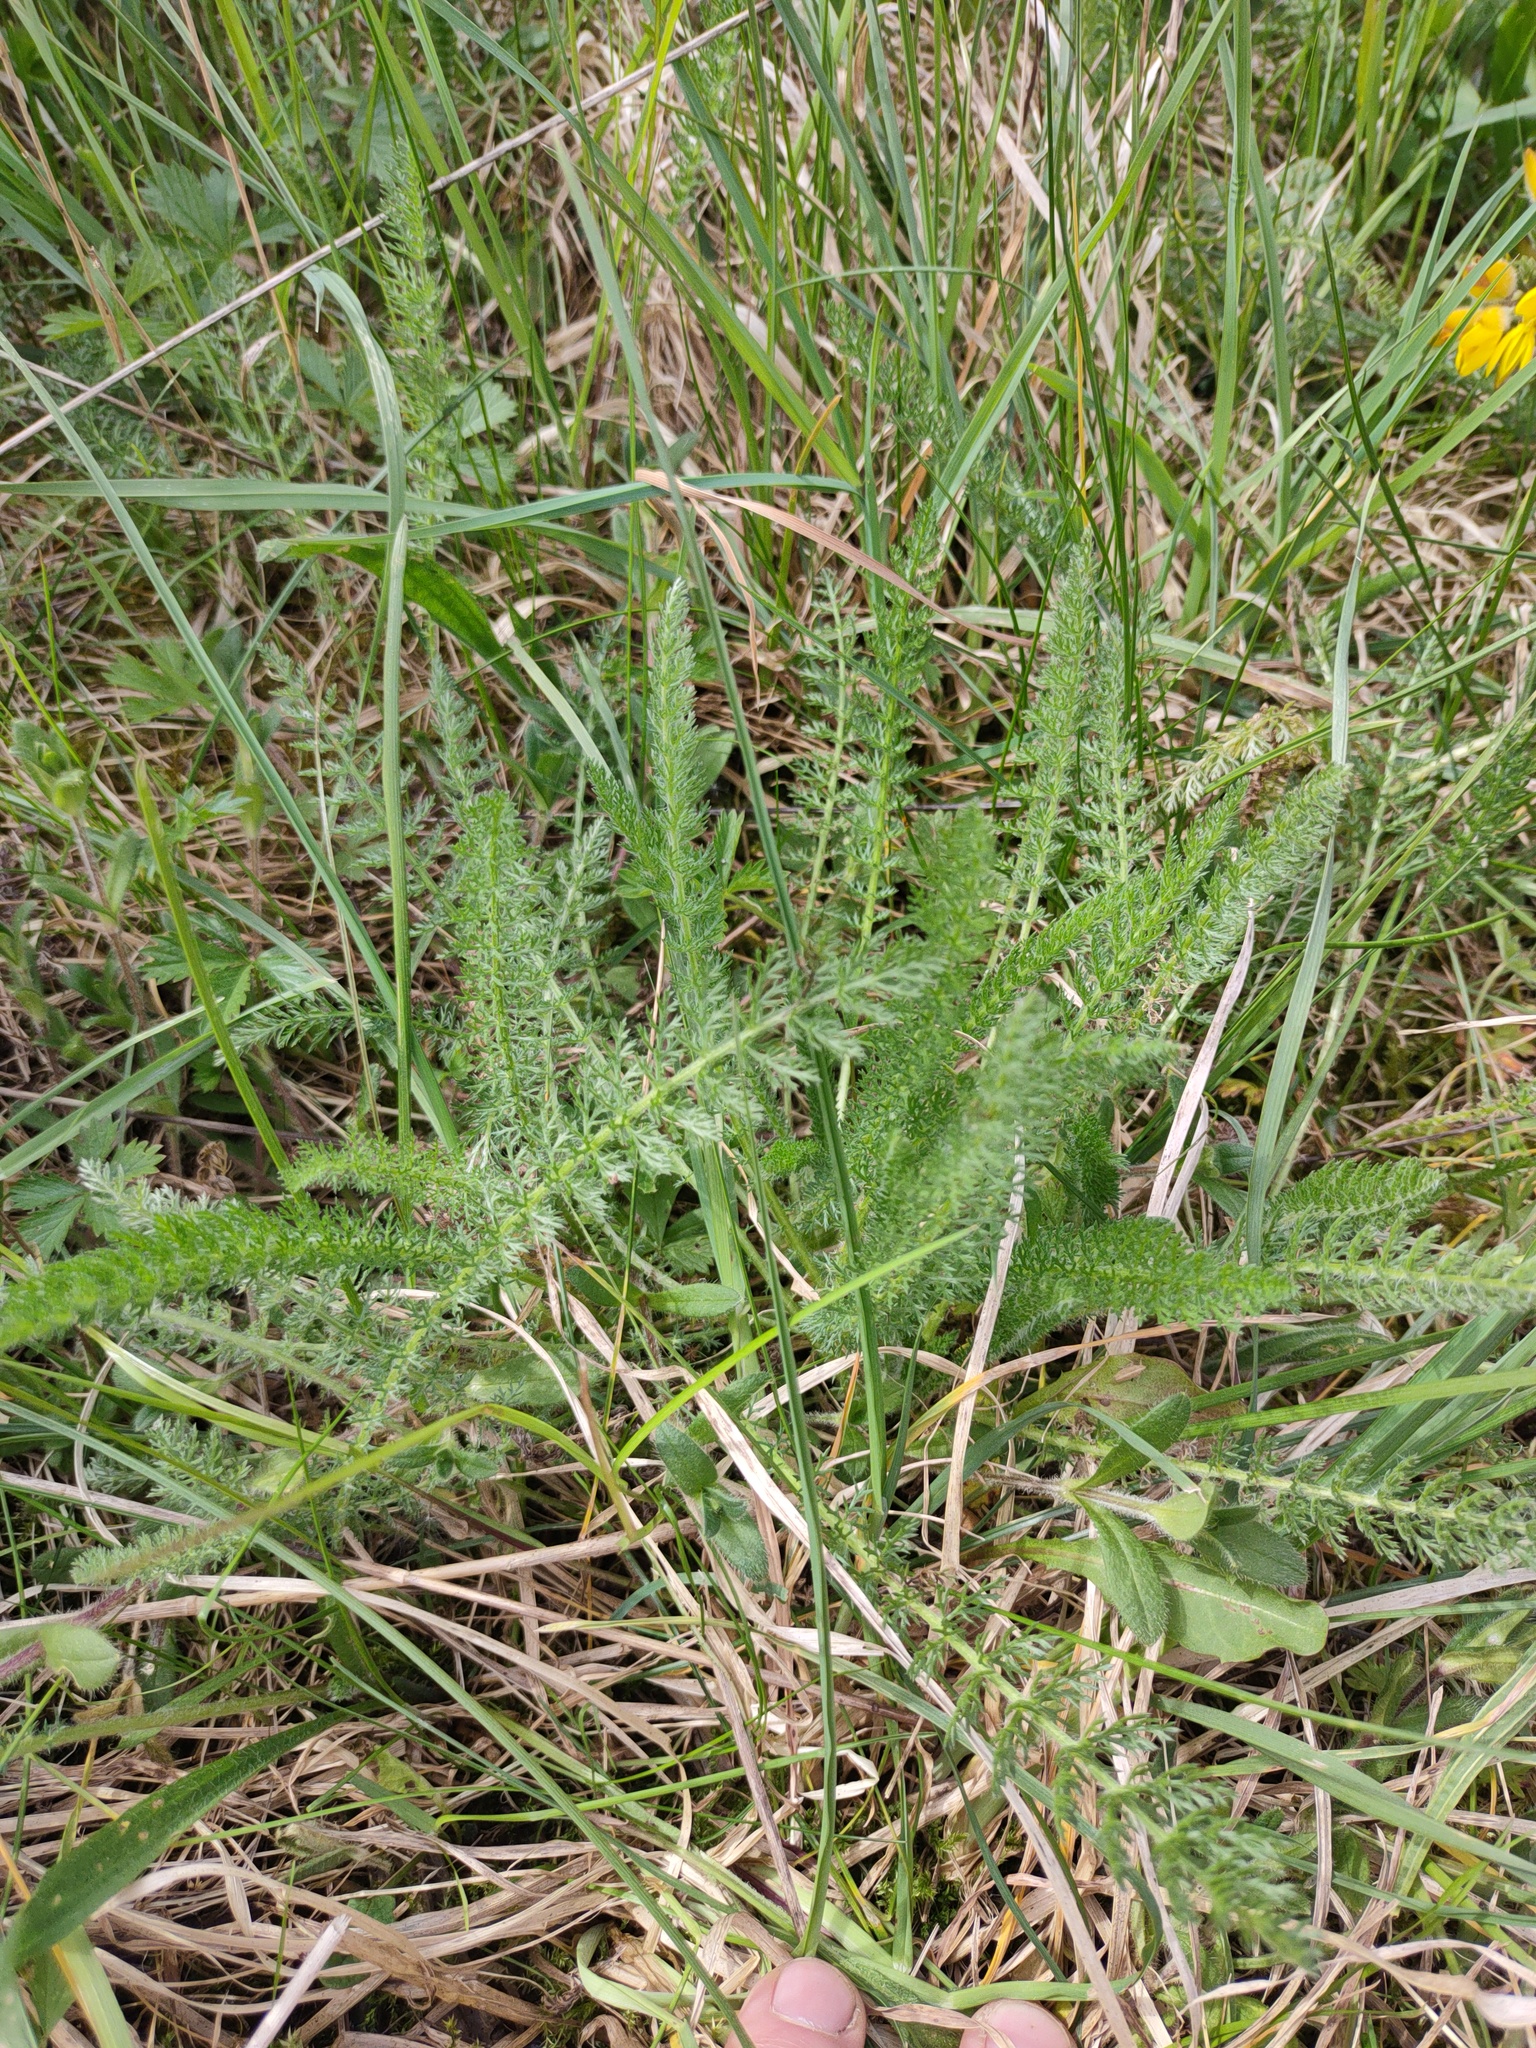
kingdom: Plantae
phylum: Tracheophyta
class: Magnoliopsida
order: Asterales
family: Asteraceae
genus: Achillea
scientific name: Achillea millefolium
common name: Yarrow
